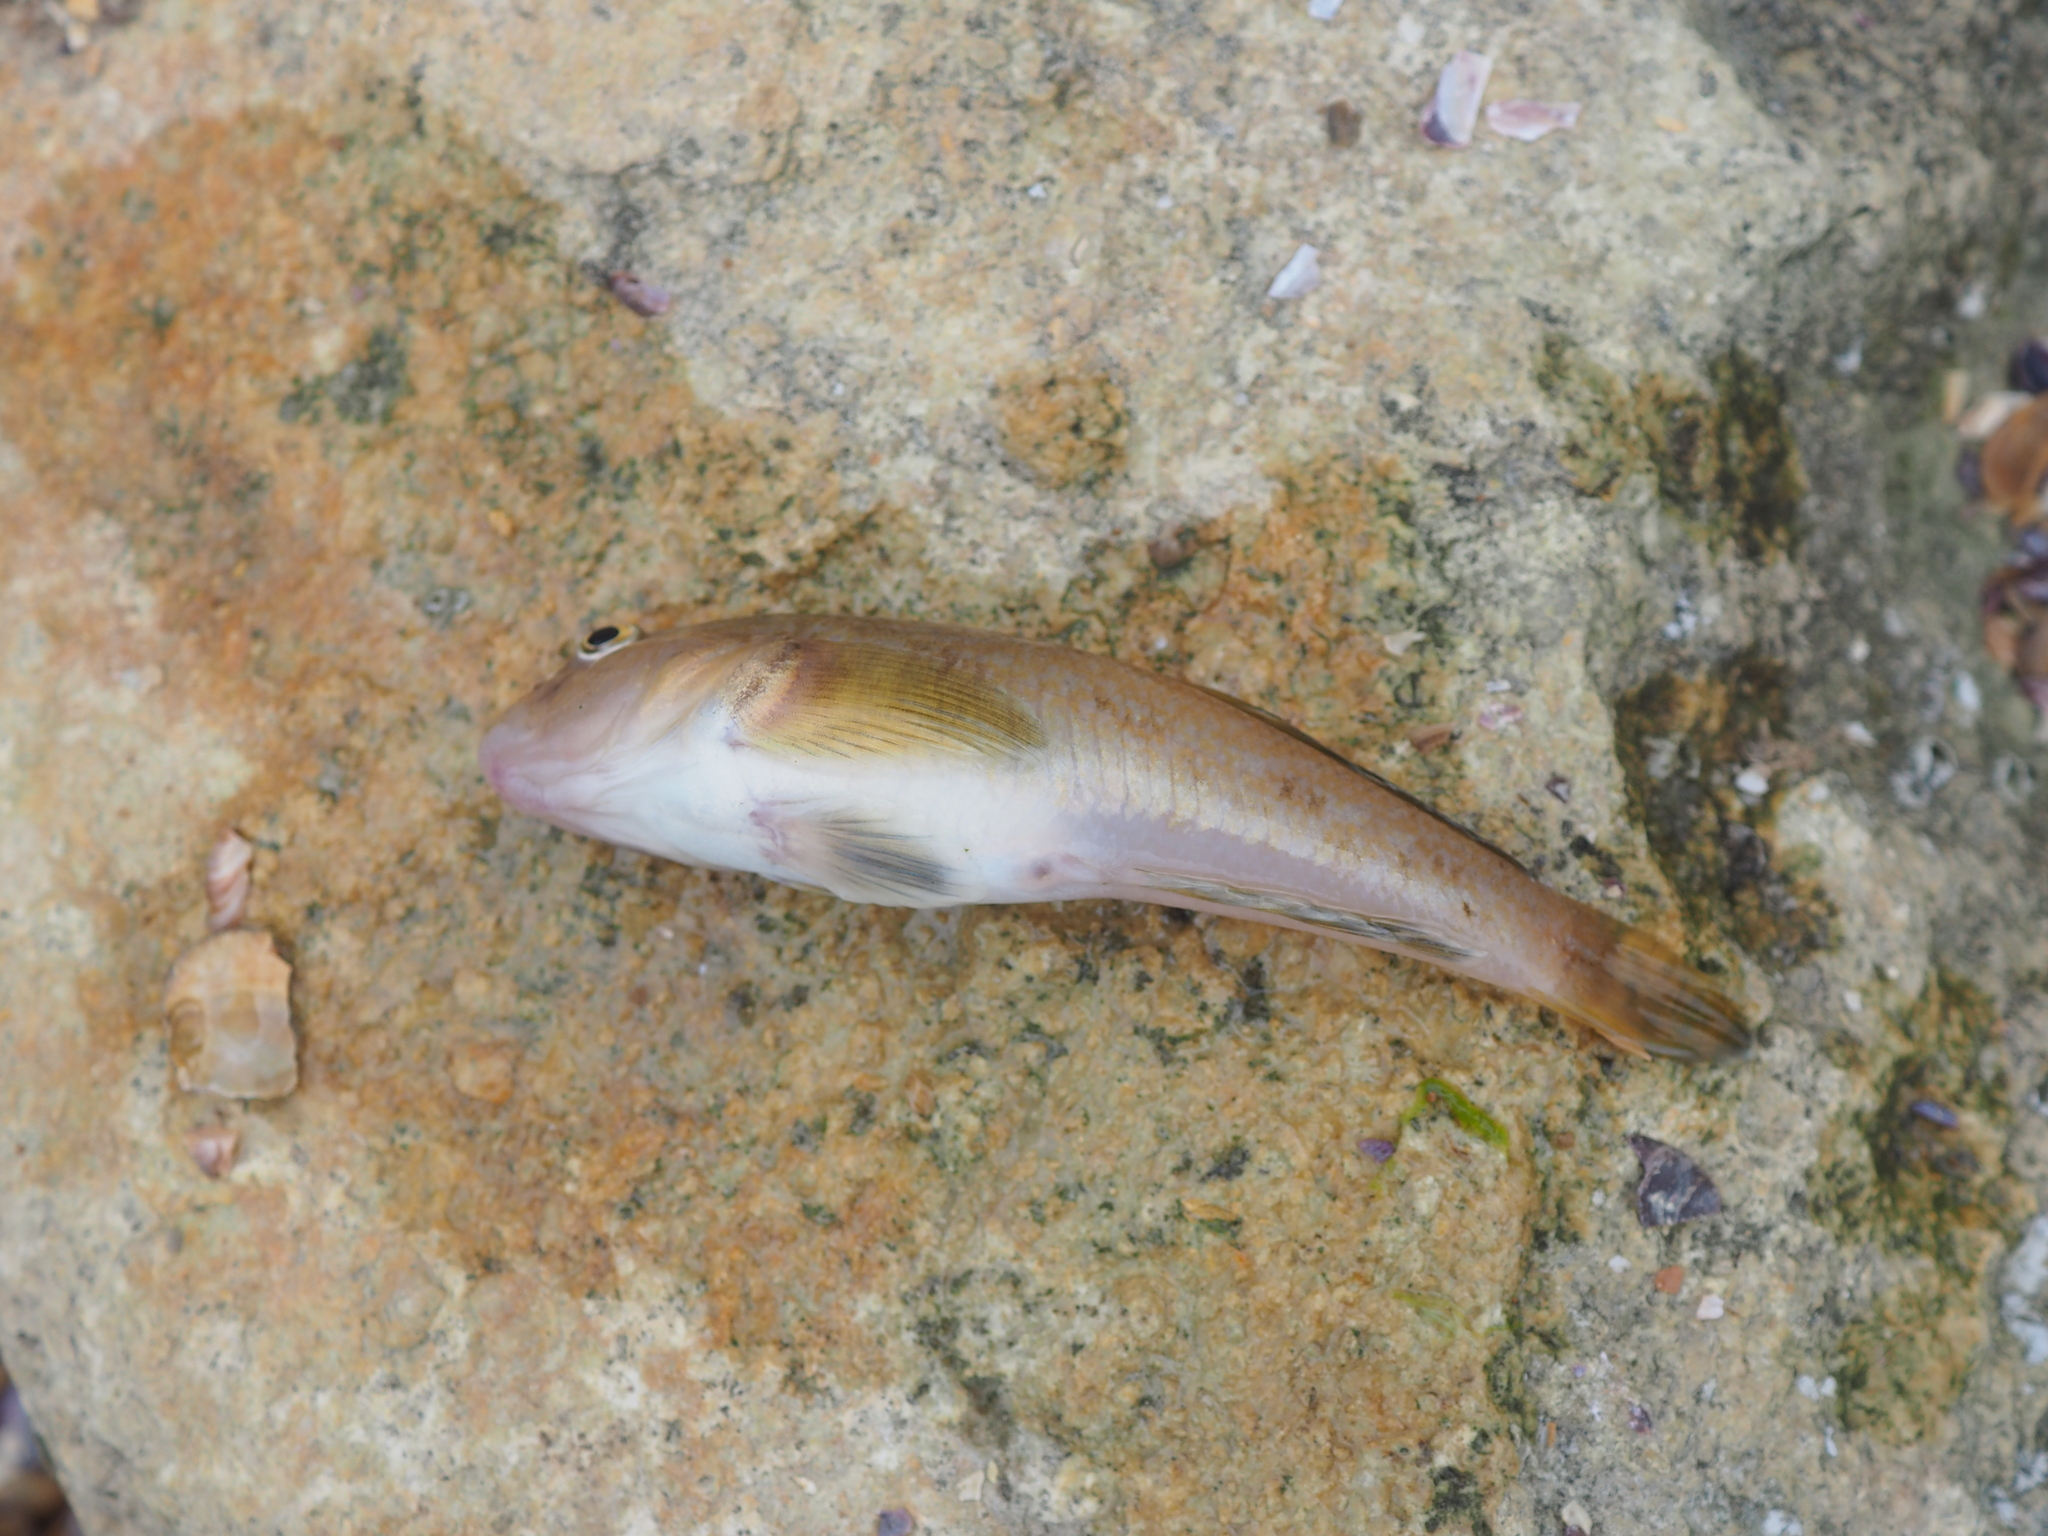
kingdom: Animalia
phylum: Chordata
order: Perciformes
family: Gobiidae
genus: Neogobius
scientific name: Neogobius melanostomus
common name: Round goby
